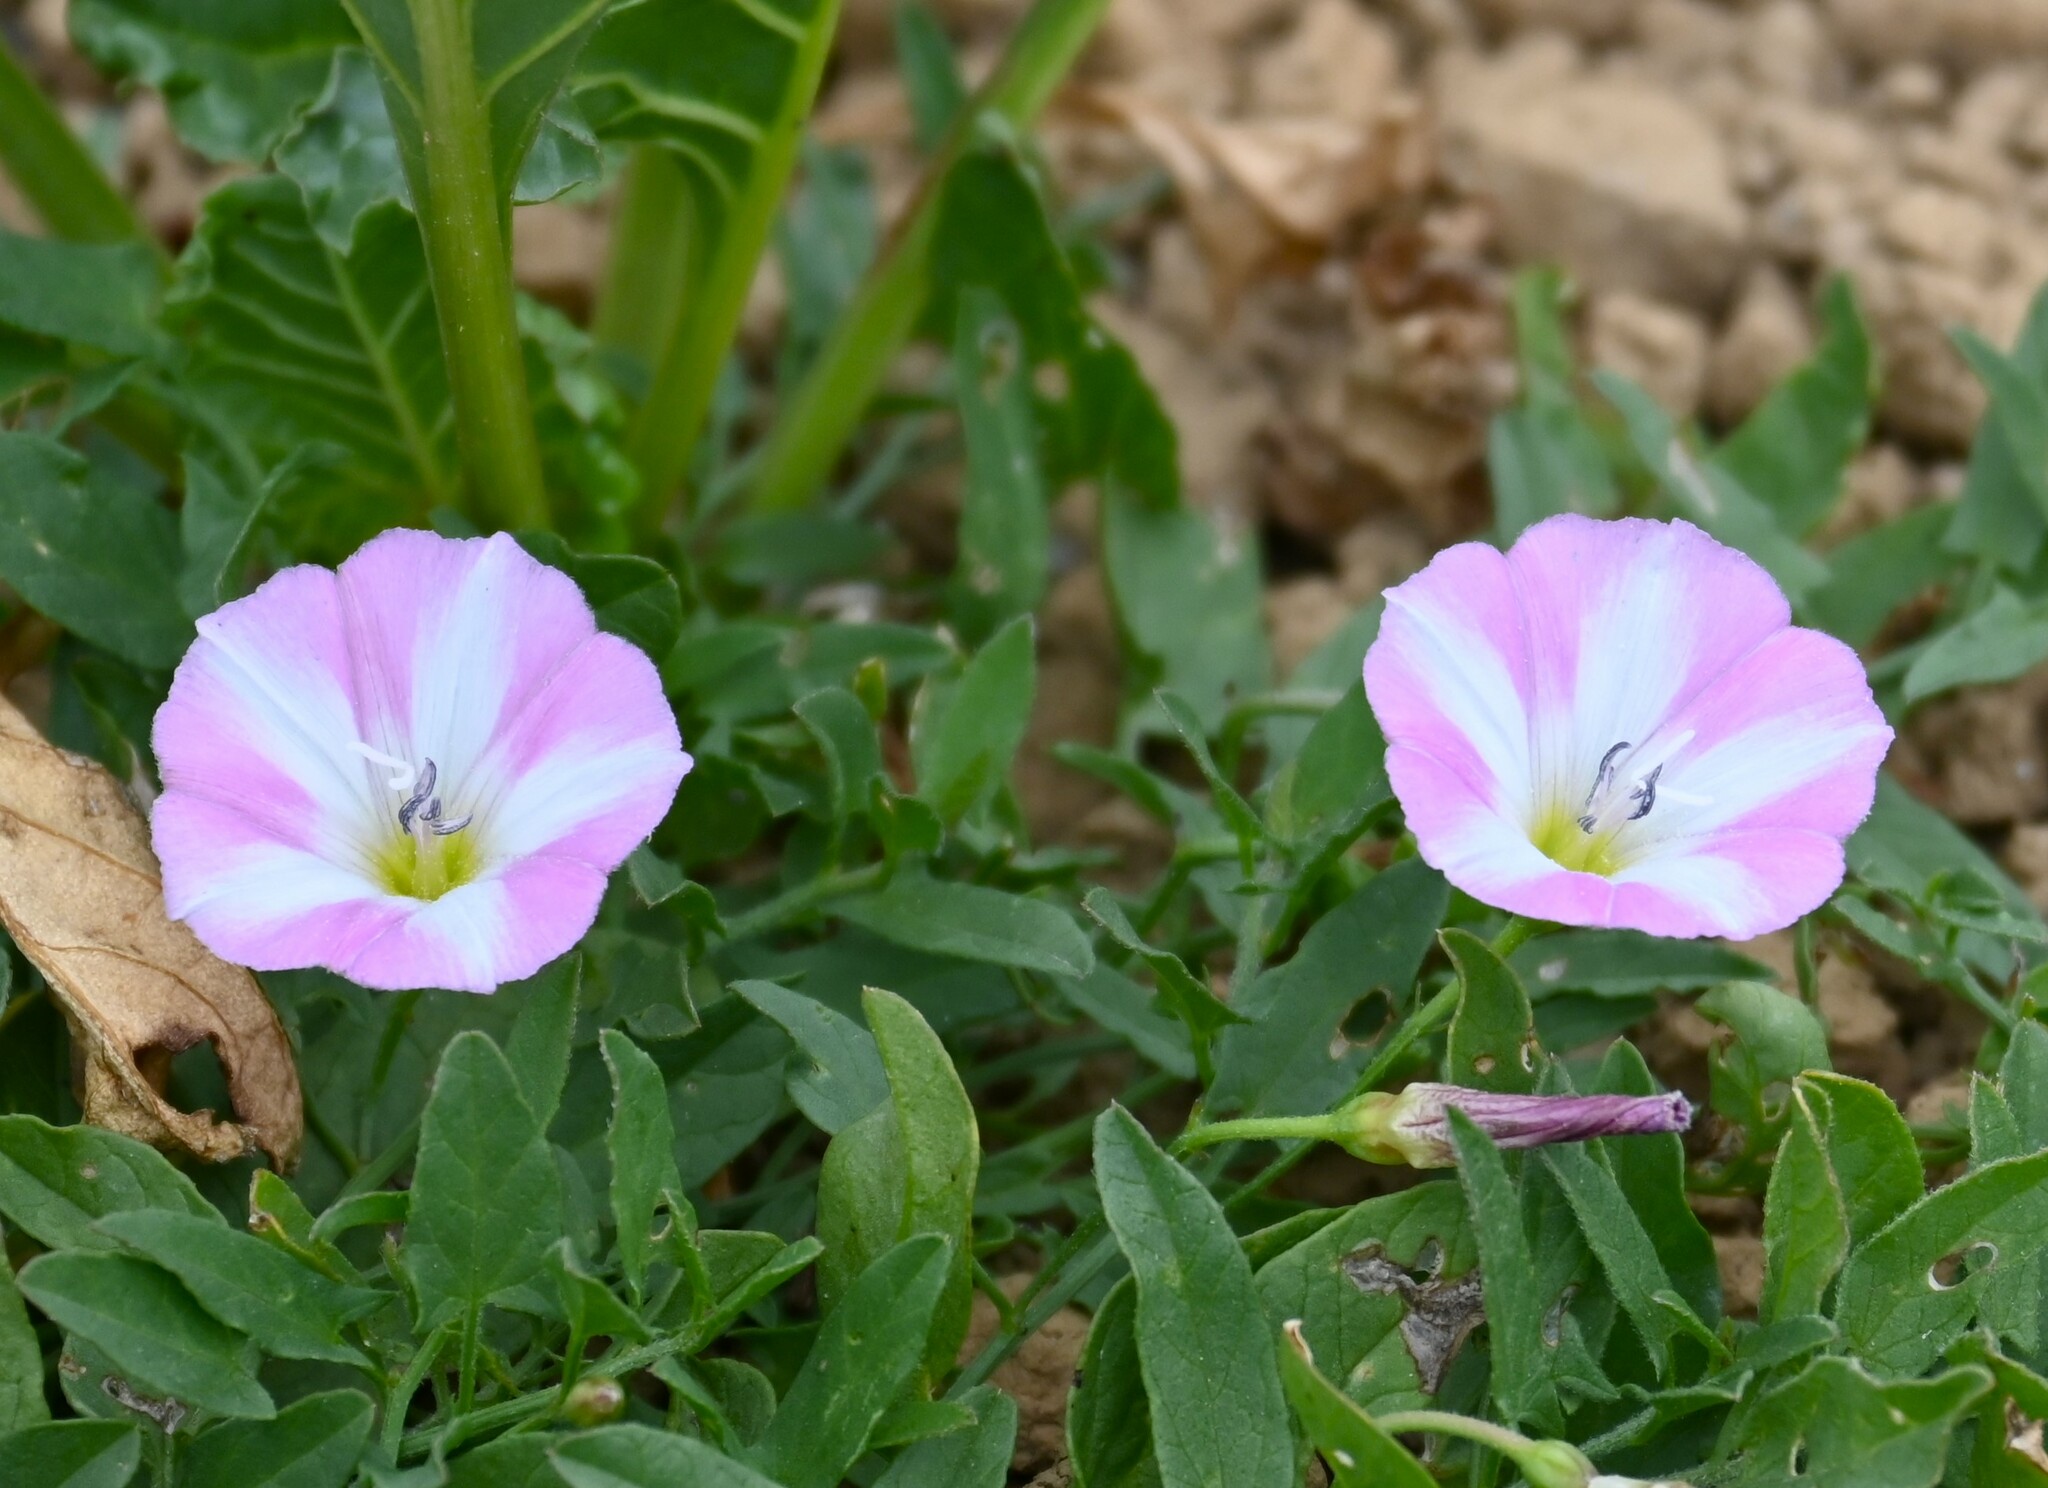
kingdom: Plantae
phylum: Tracheophyta
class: Magnoliopsida
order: Solanales
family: Convolvulaceae
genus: Convolvulus
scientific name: Convolvulus arvensis
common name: Field bindweed
